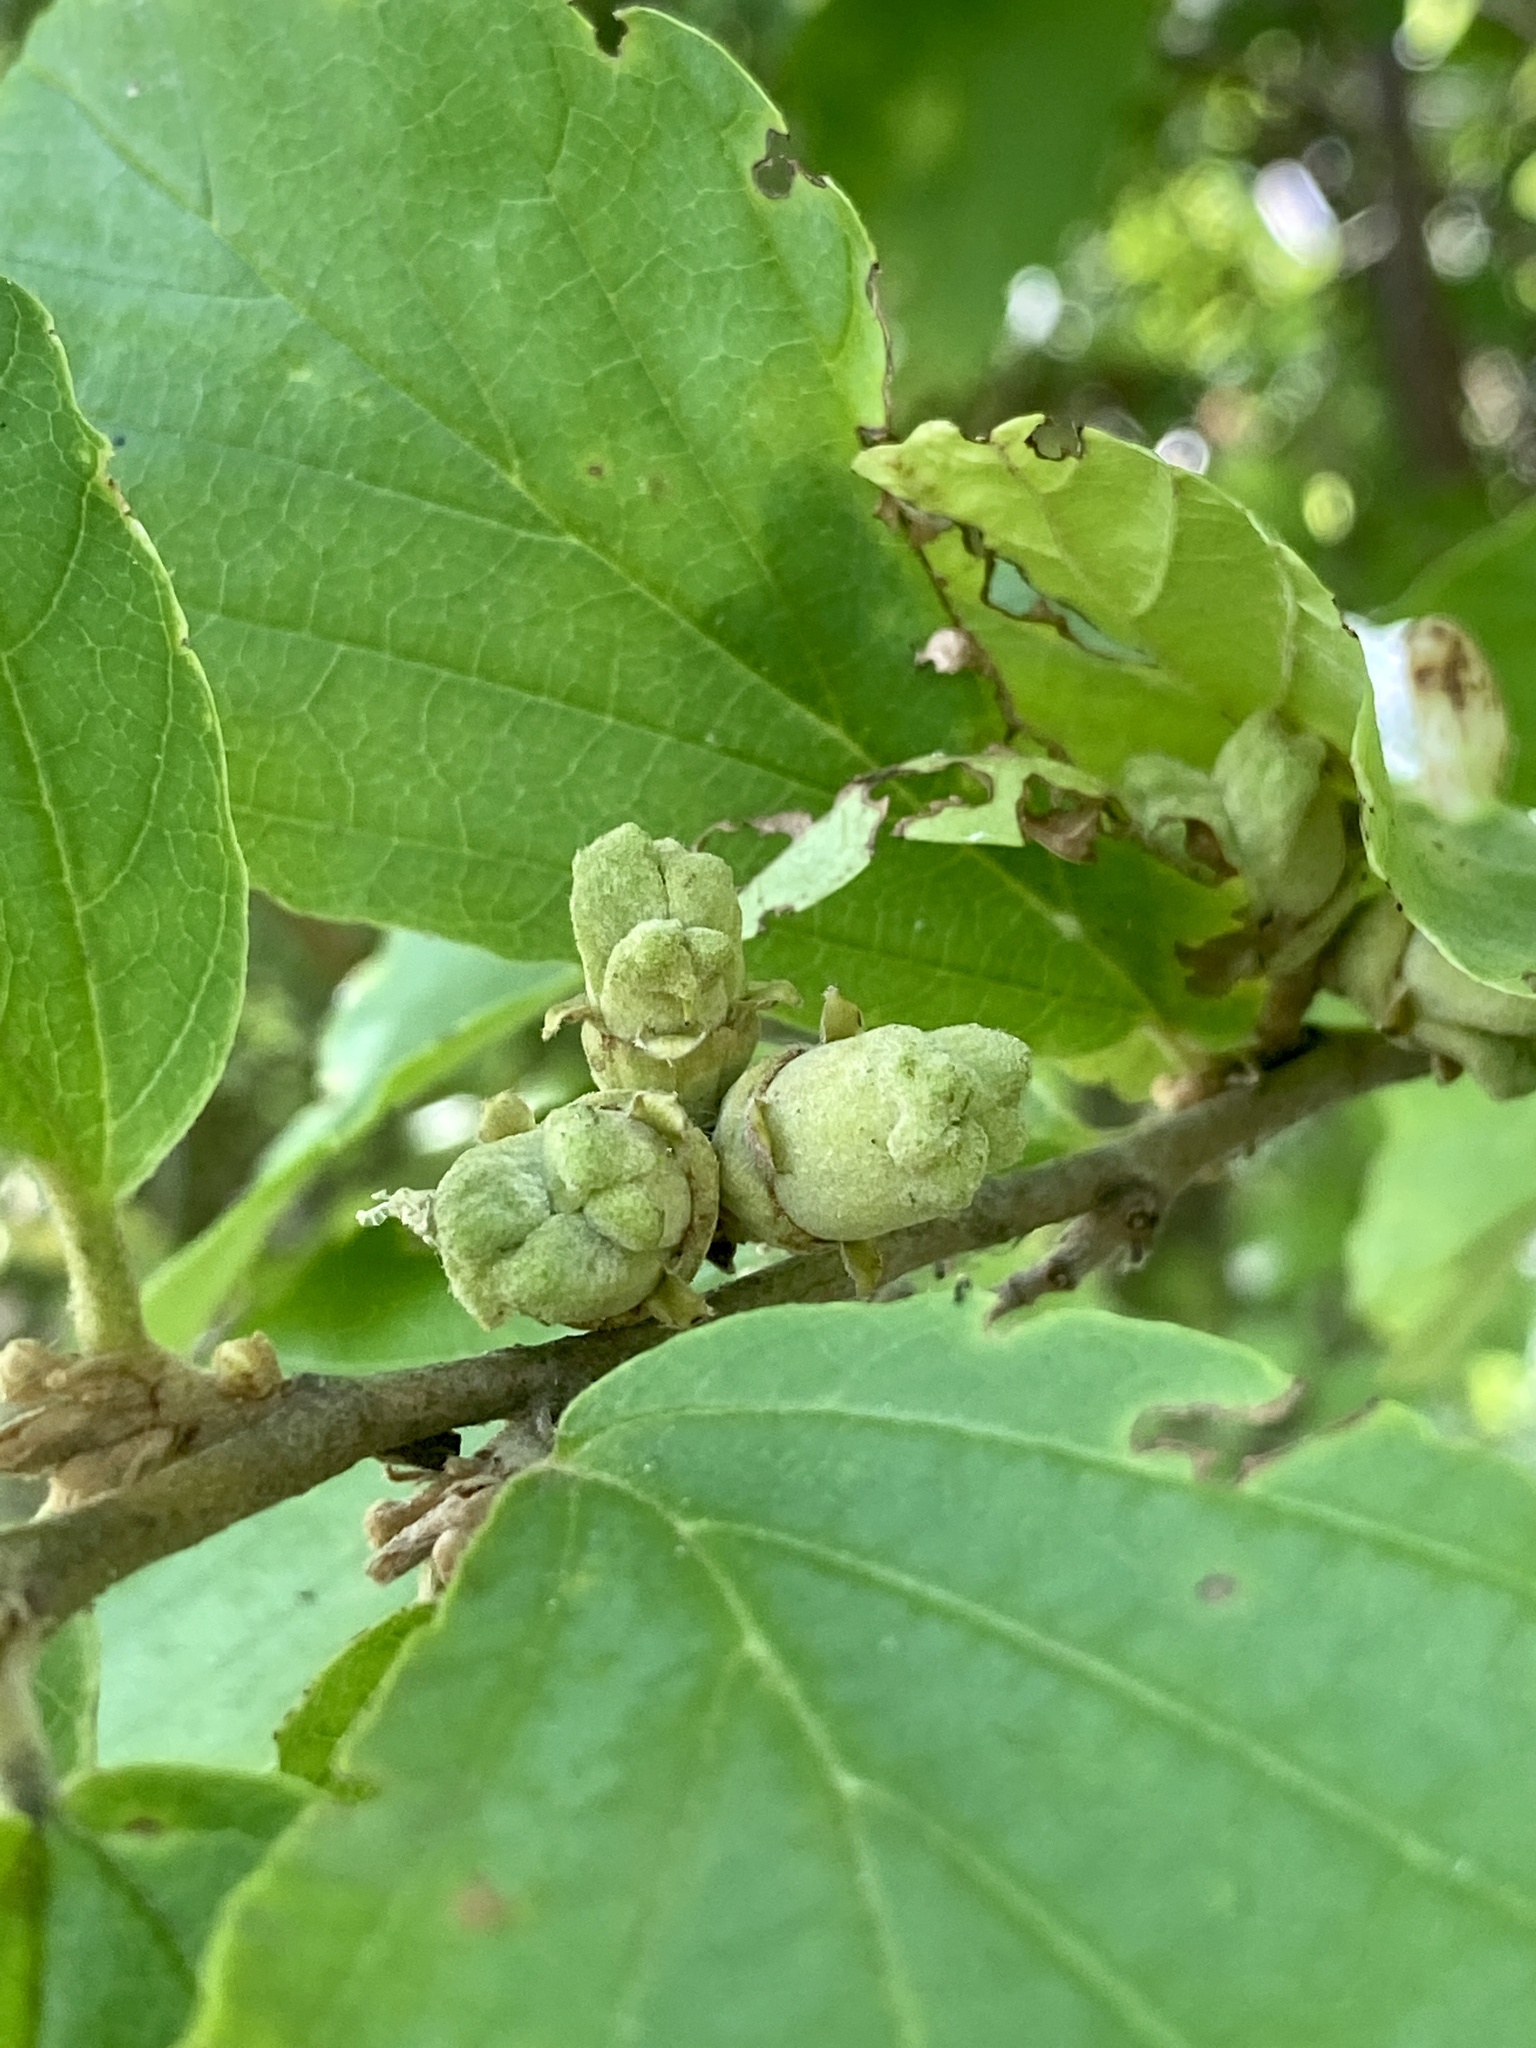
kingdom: Plantae
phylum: Tracheophyta
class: Magnoliopsida
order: Saxifragales
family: Hamamelidaceae
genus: Hamamelis
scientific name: Hamamelis virginiana
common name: Witch-hazel
